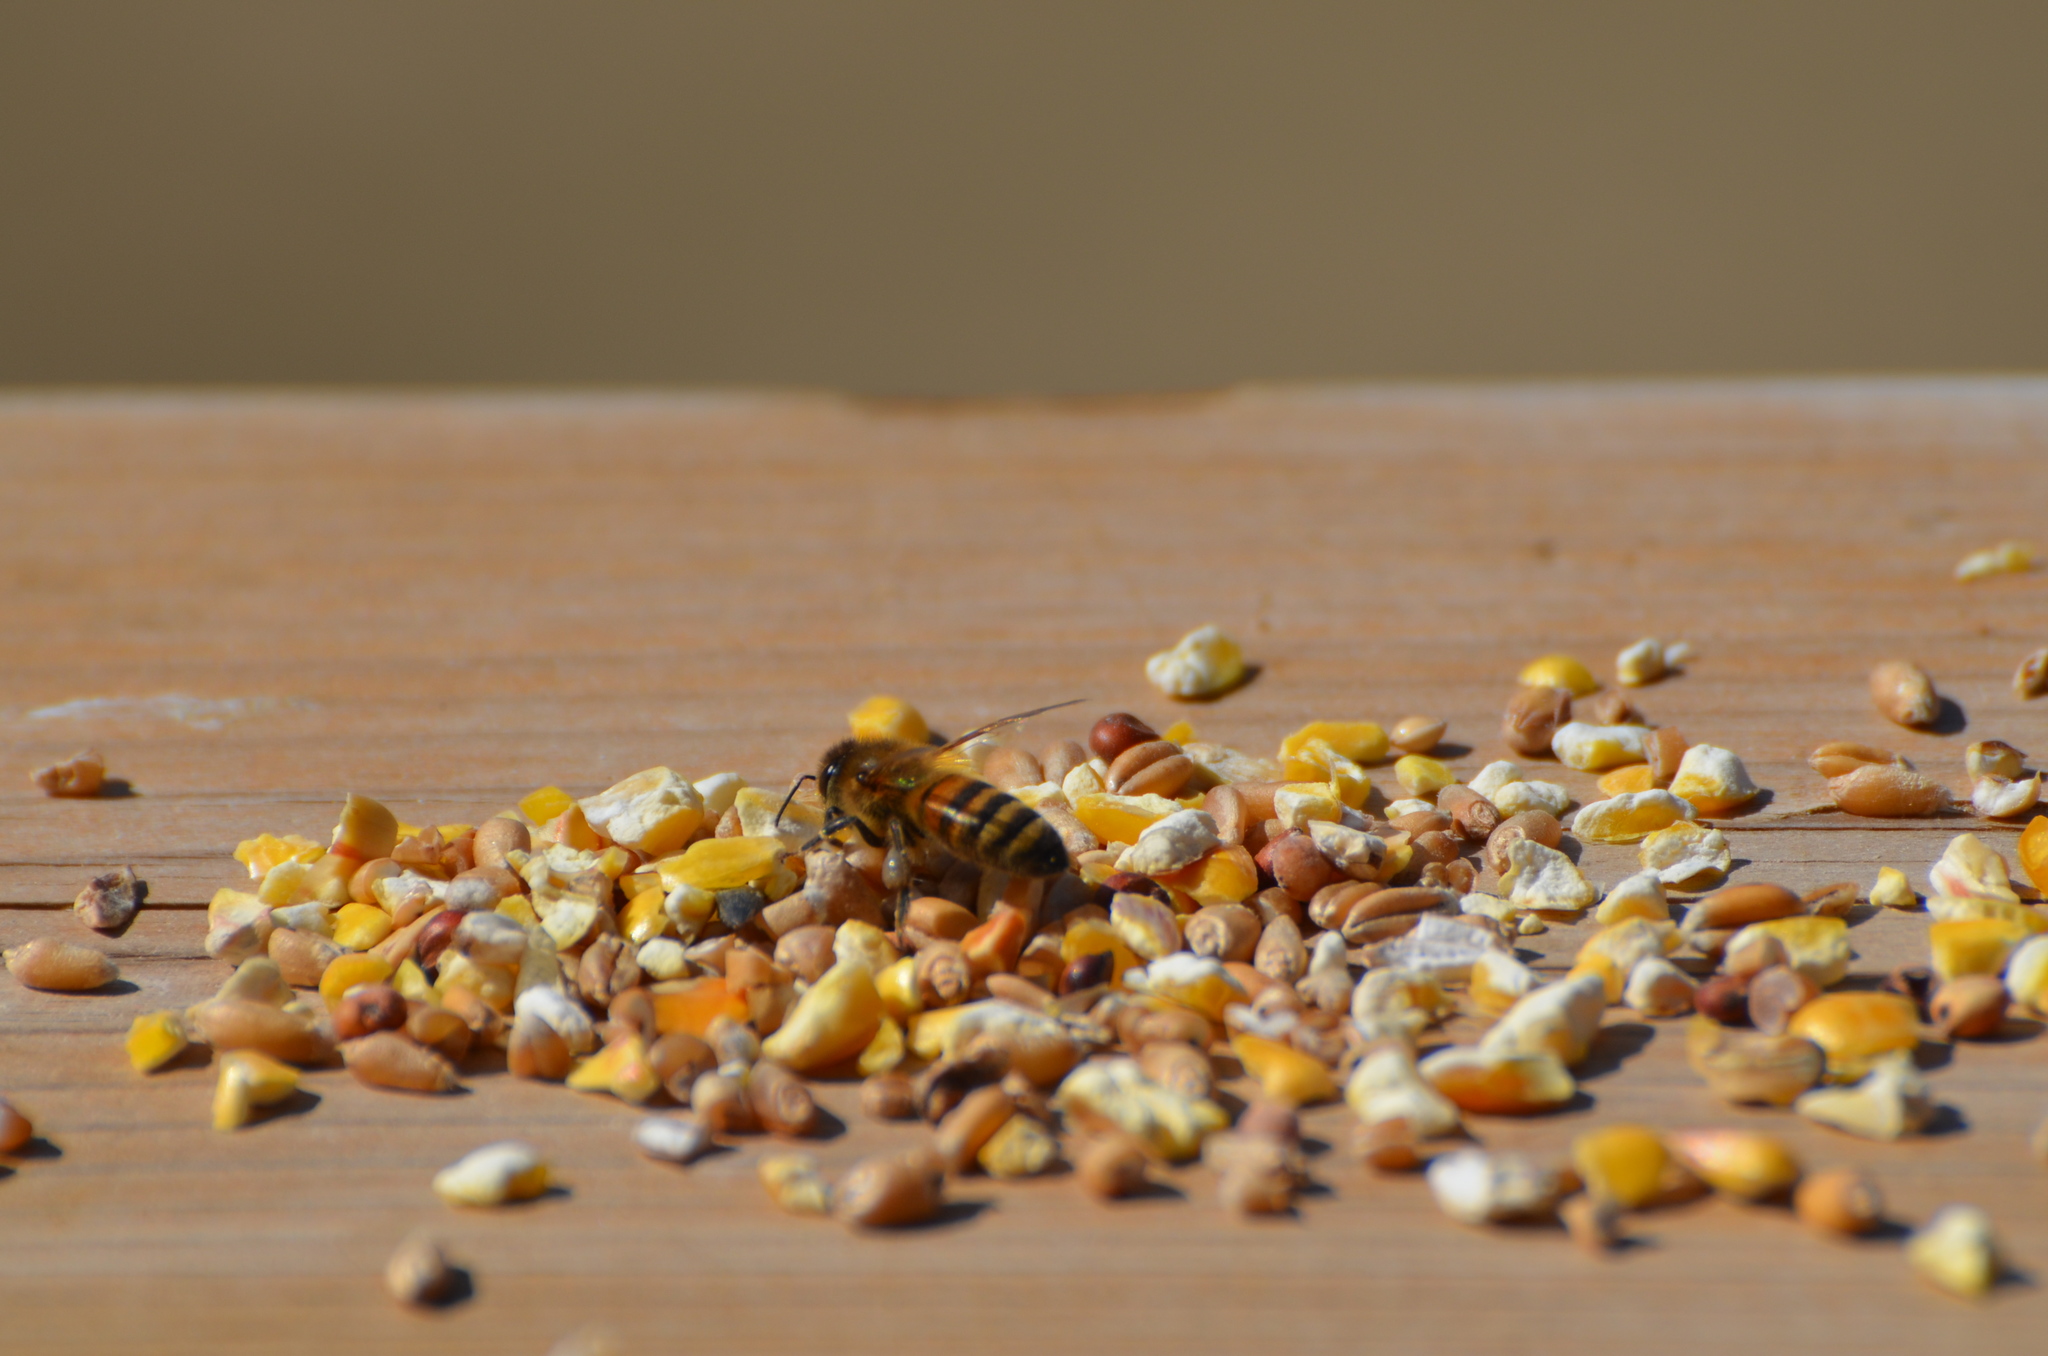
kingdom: Animalia
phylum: Arthropoda
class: Insecta
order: Hymenoptera
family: Apidae
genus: Apis
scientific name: Apis mellifera
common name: Honey bee
